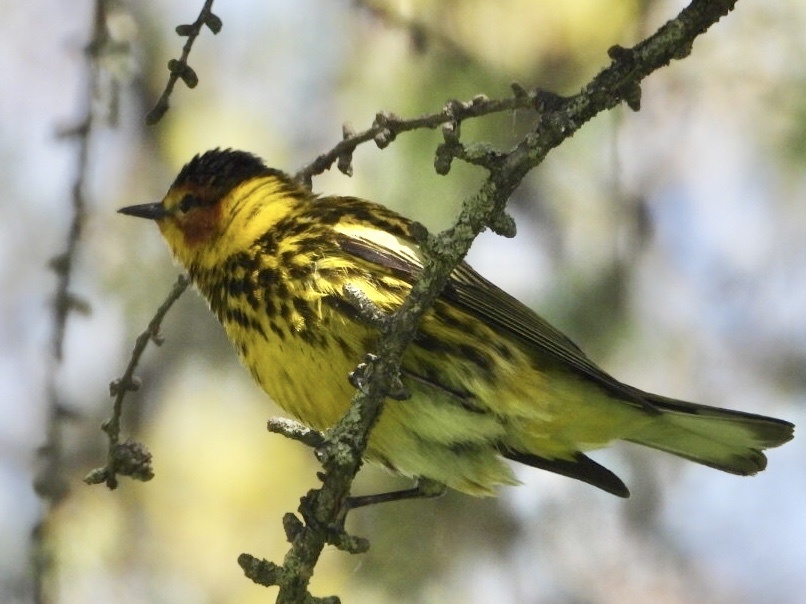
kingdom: Animalia
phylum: Chordata
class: Aves
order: Passeriformes
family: Parulidae
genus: Setophaga
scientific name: Setophaga tigrina
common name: Cape may warbler
